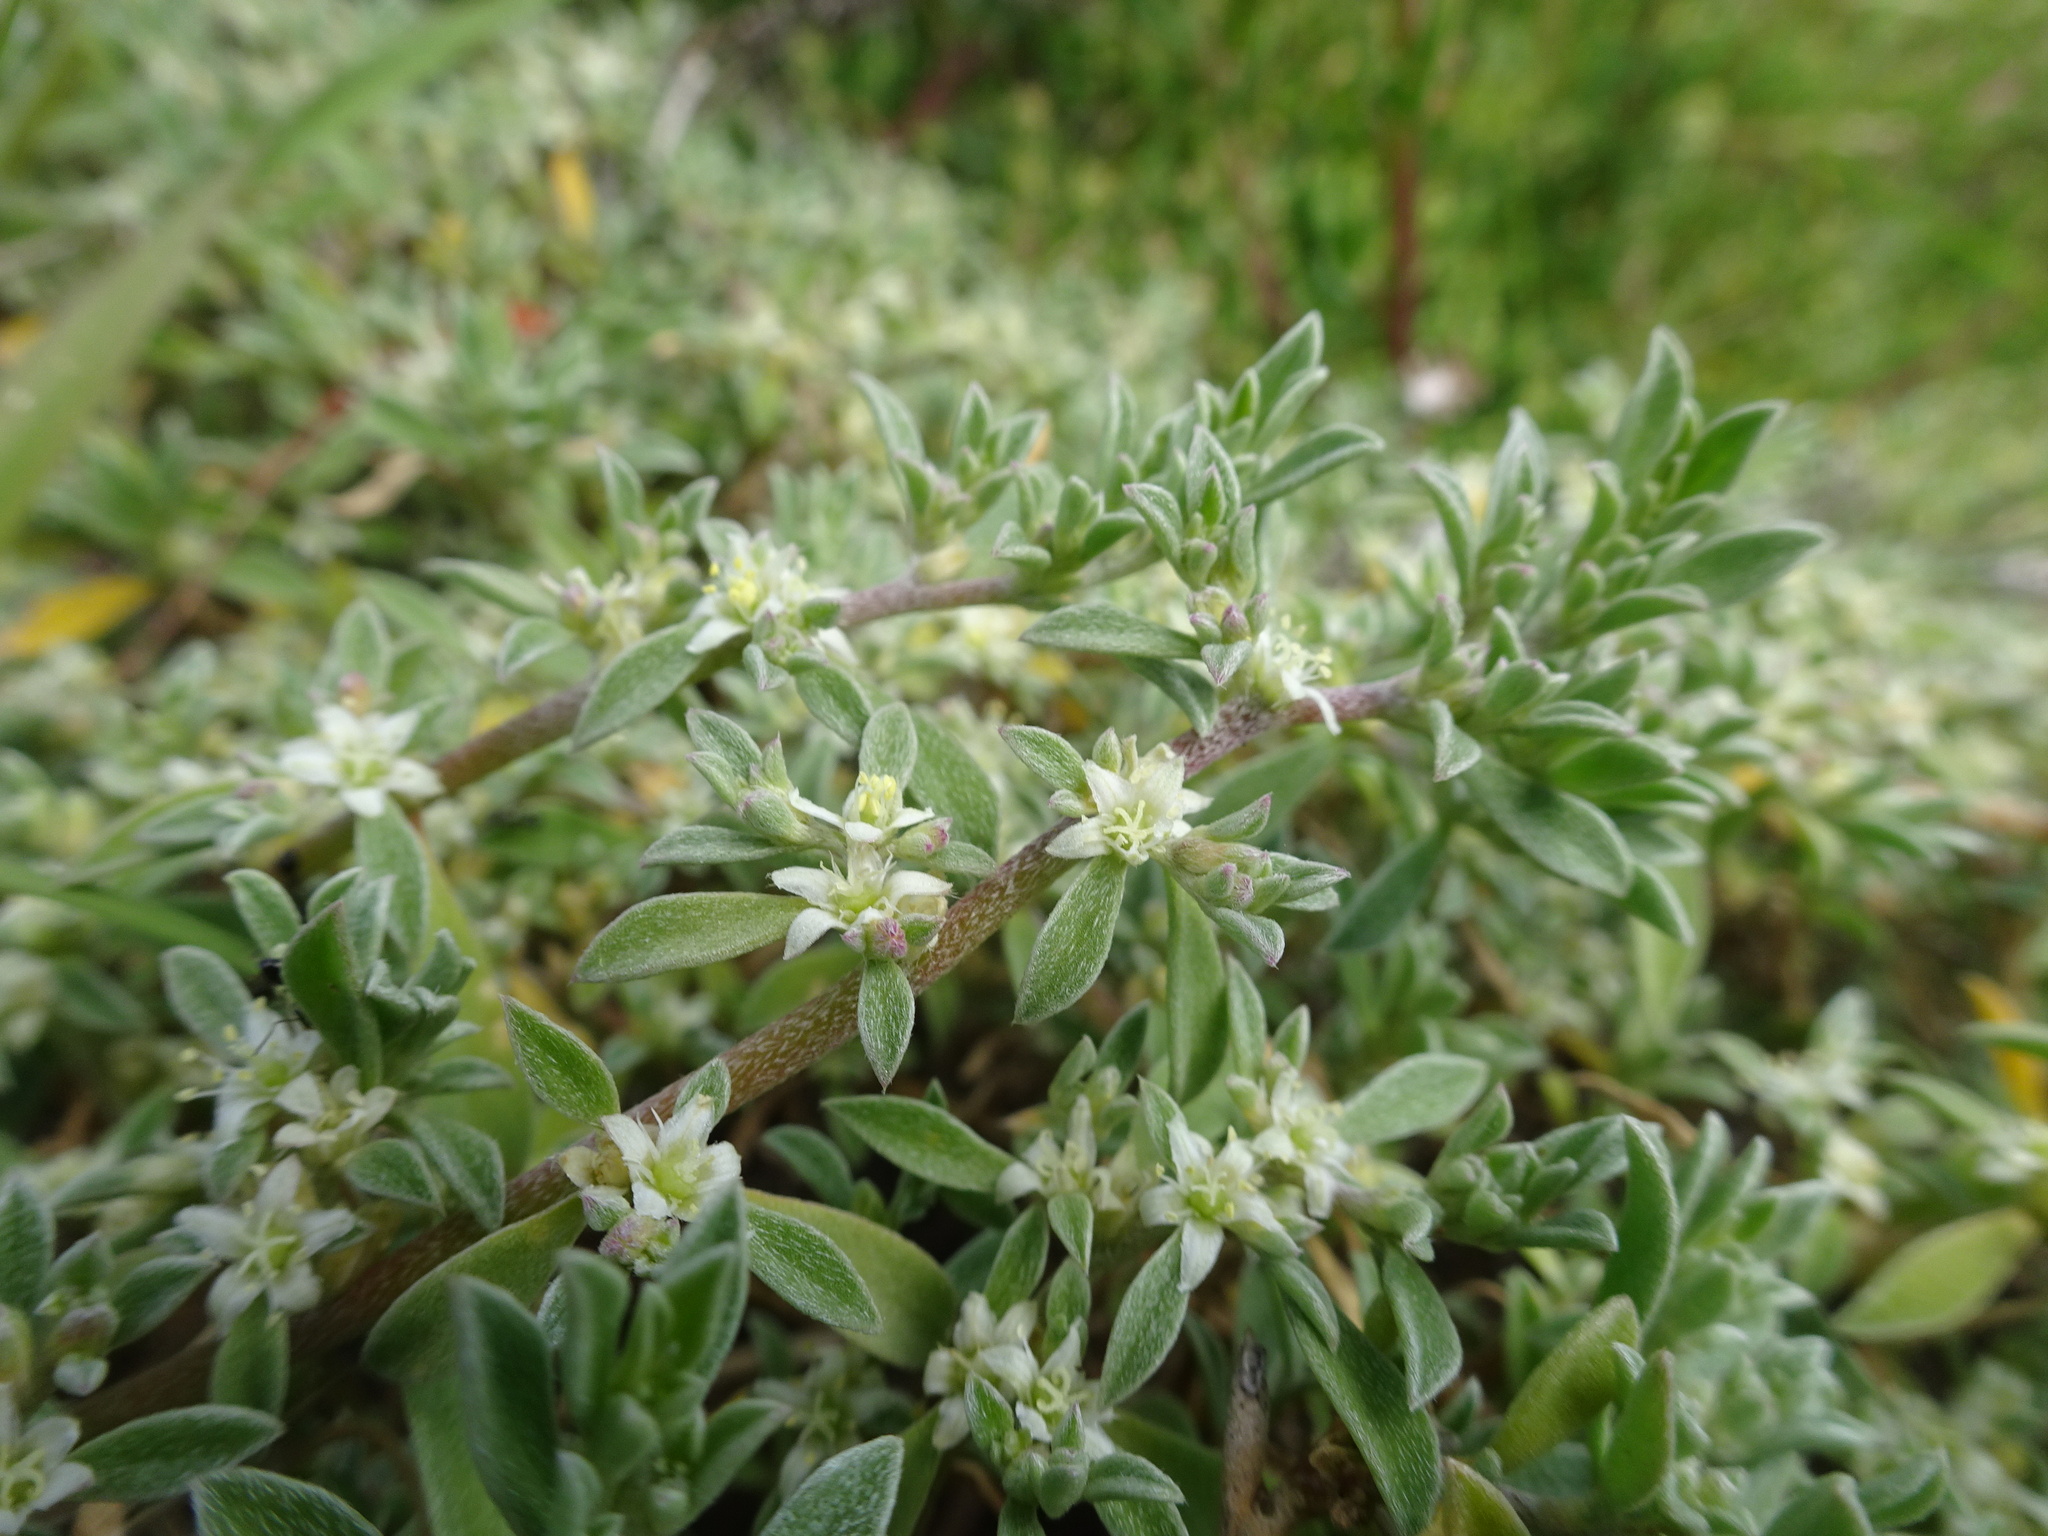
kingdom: Plantae
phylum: Tracheophyta
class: Magnoliopsida
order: Caryophyllales
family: Aizoaceae
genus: Aizoon
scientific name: Aizoon pubescens
